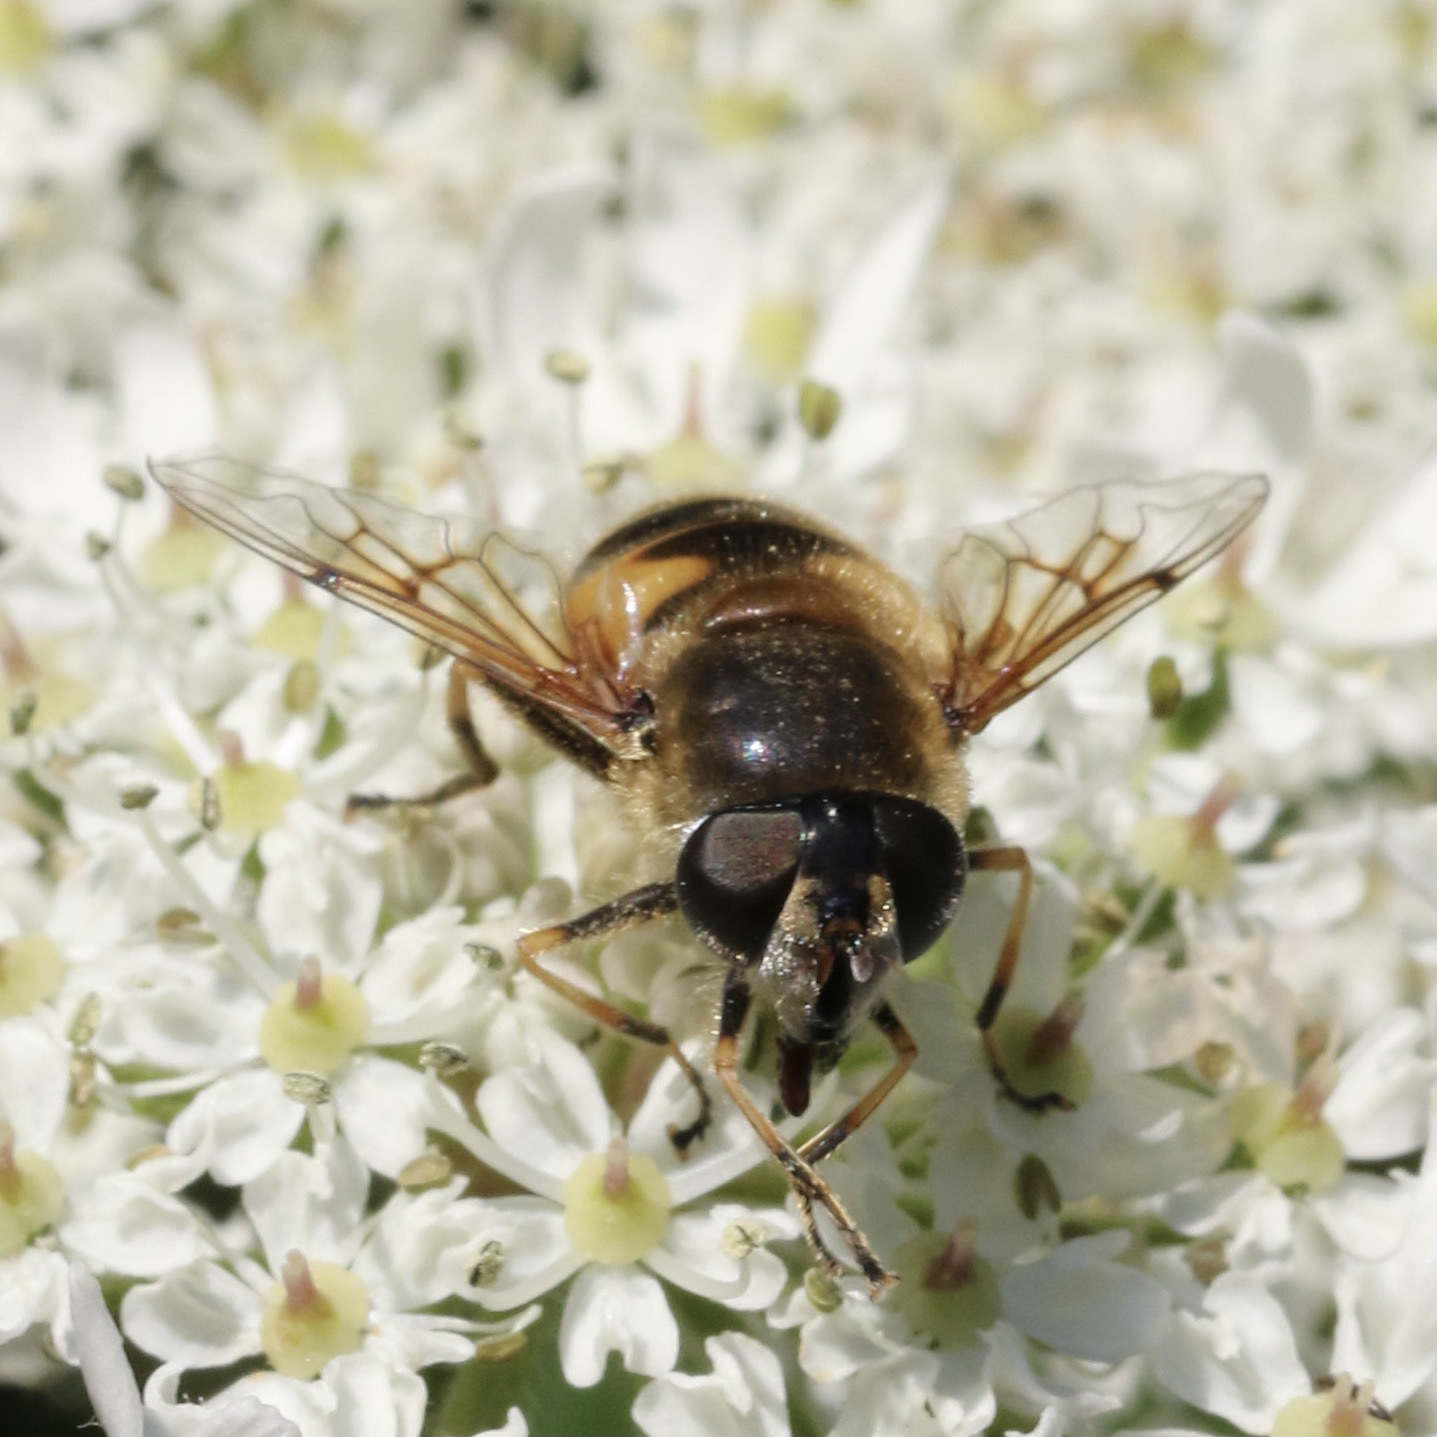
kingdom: Animalia
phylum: Arthropoda
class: Insecta
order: Diptera
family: Syrphidae
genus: Cheilosia
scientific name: Cheilosia morio
